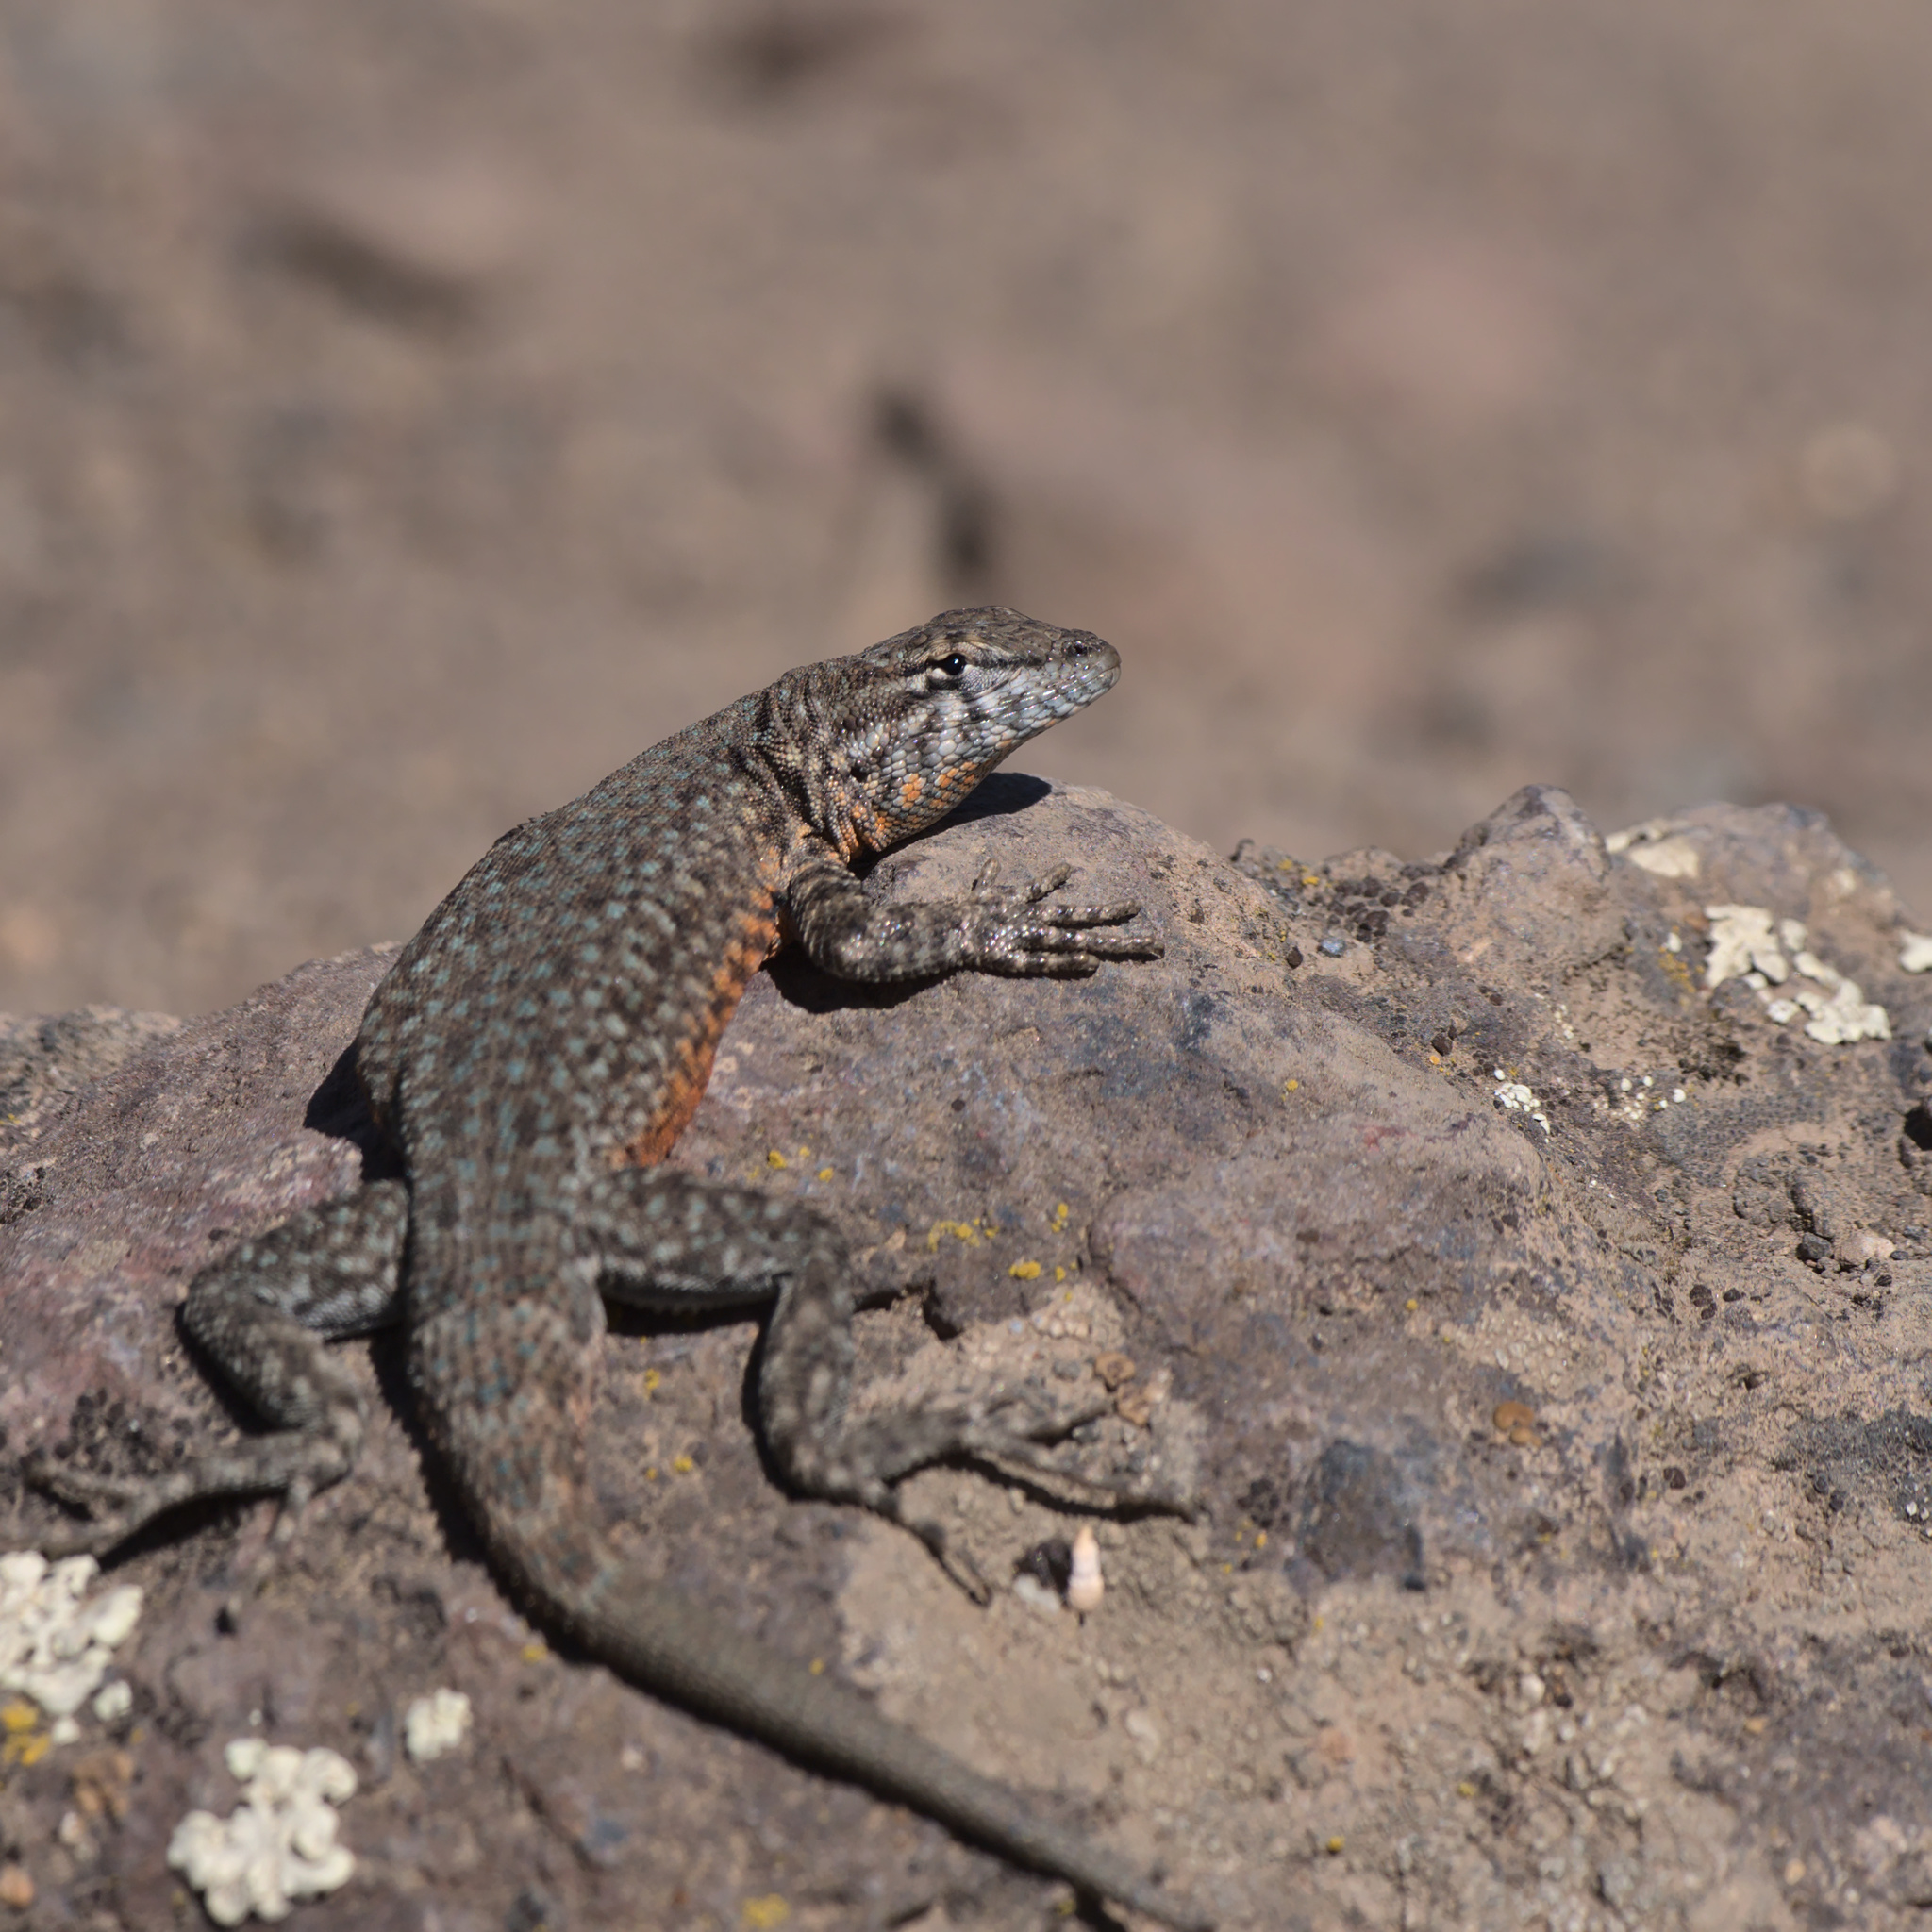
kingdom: Animalia
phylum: Chordata
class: Squamata
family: Phrynosomatidae
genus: Uta
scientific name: Uta stansburiana
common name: Side-blotched lizard
